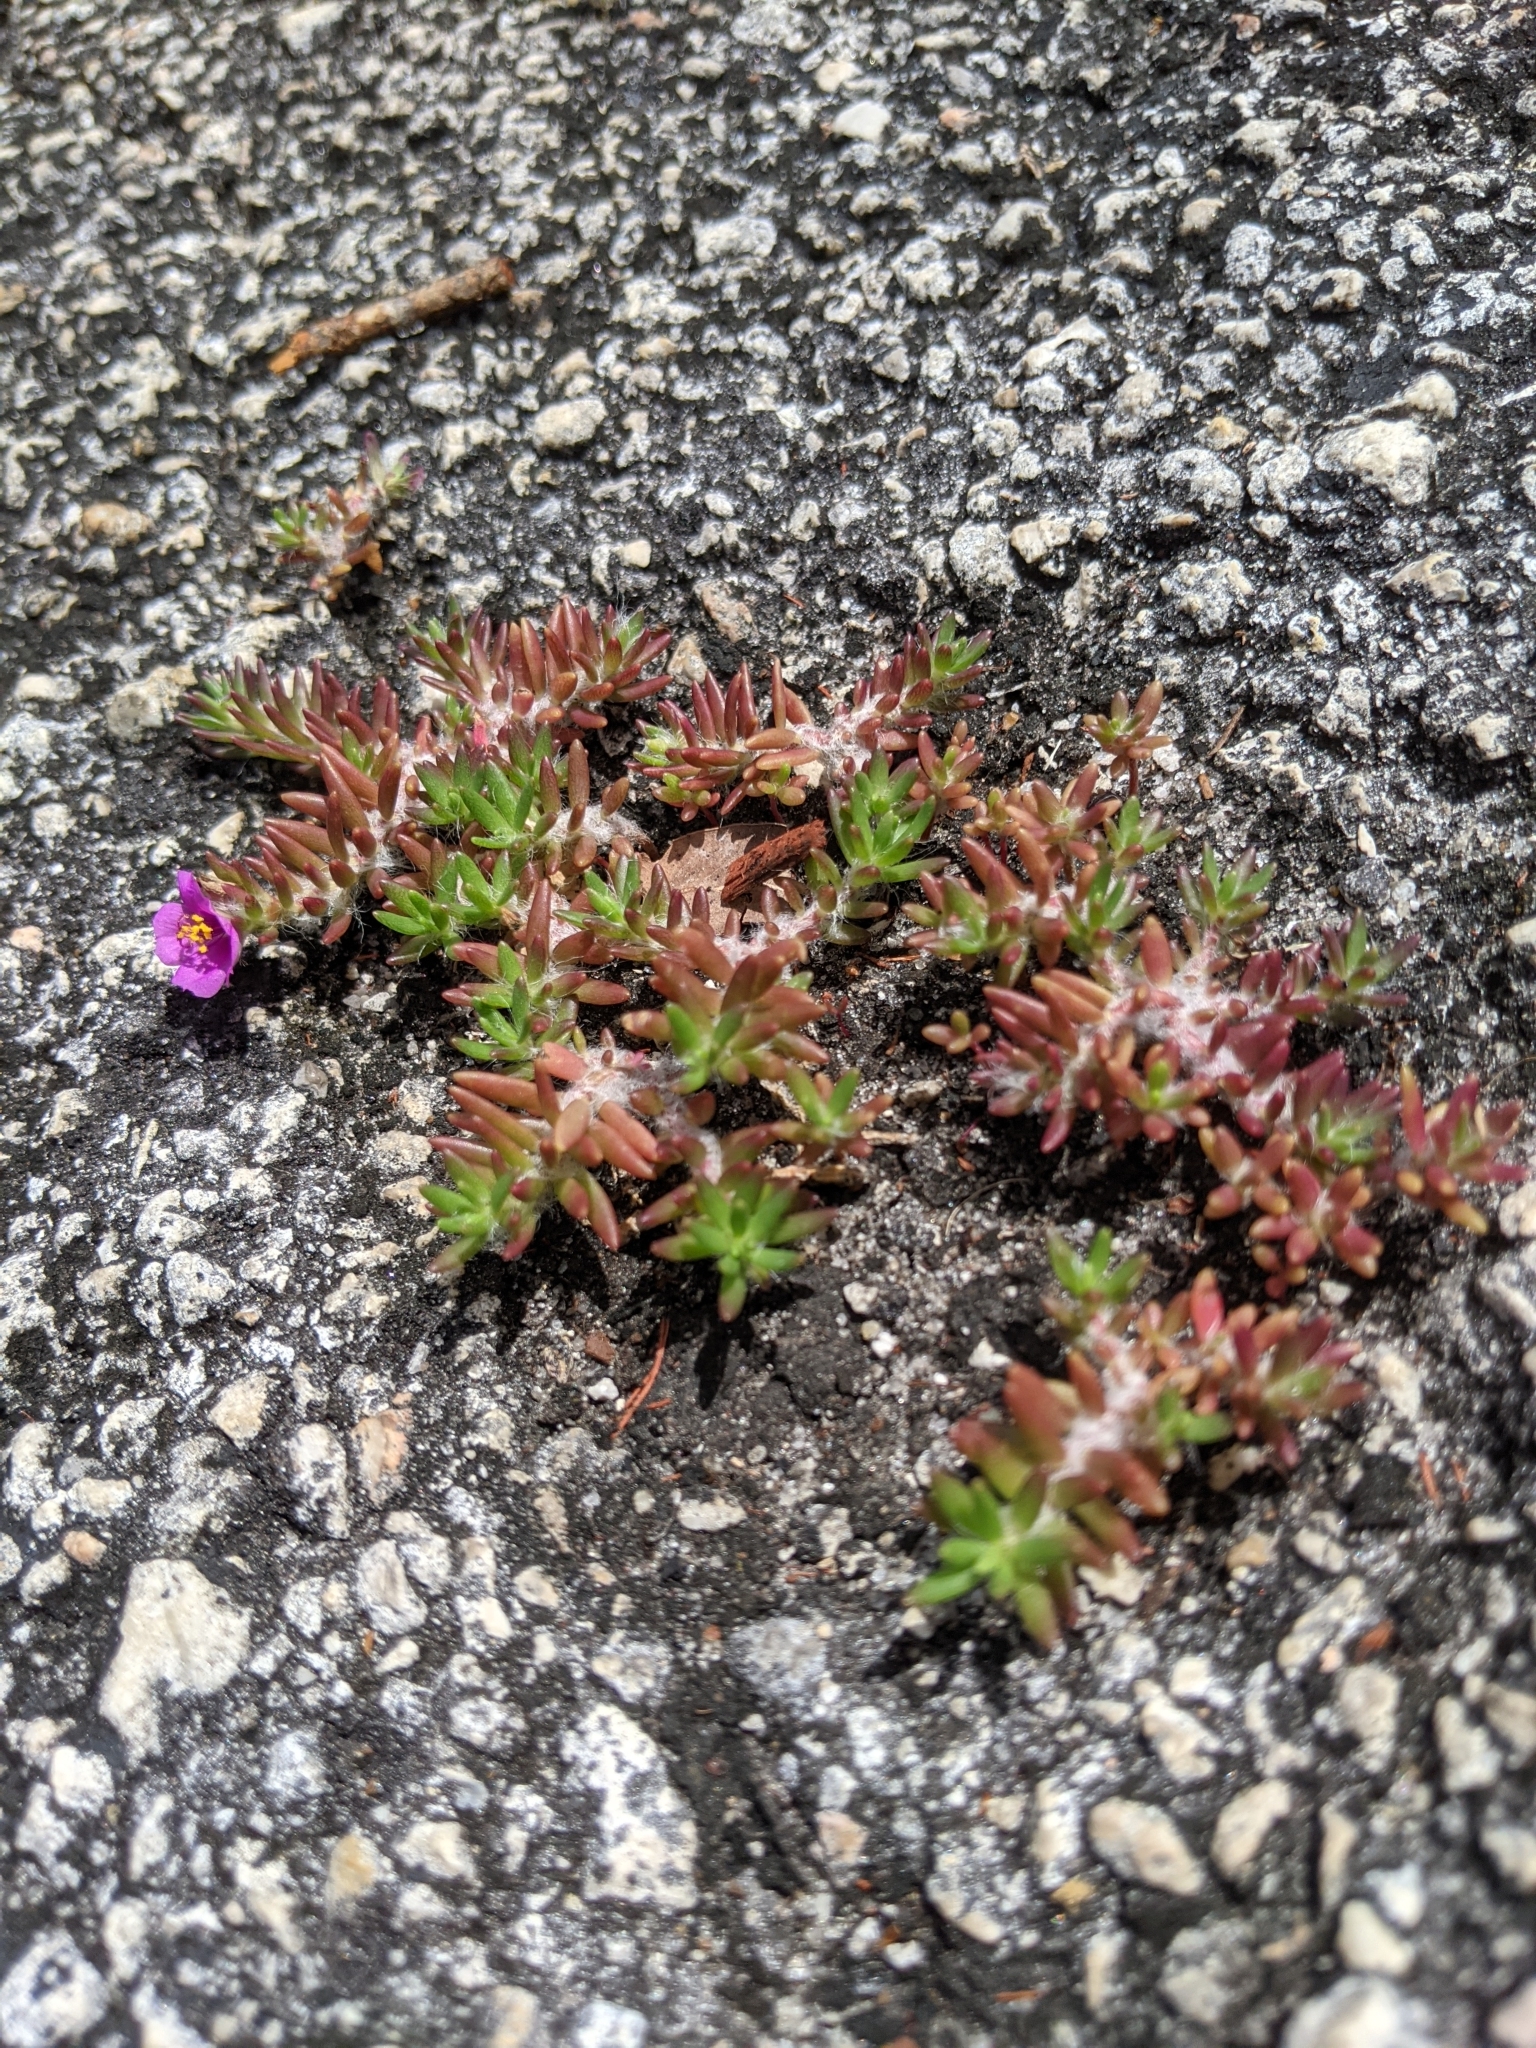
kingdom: Plantae
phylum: Tracheophyta
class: Magnoliopsida
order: Caryophyllales
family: Portulacaceae
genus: Portulaca
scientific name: Portulaca pilosa
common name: Kiss me quick
